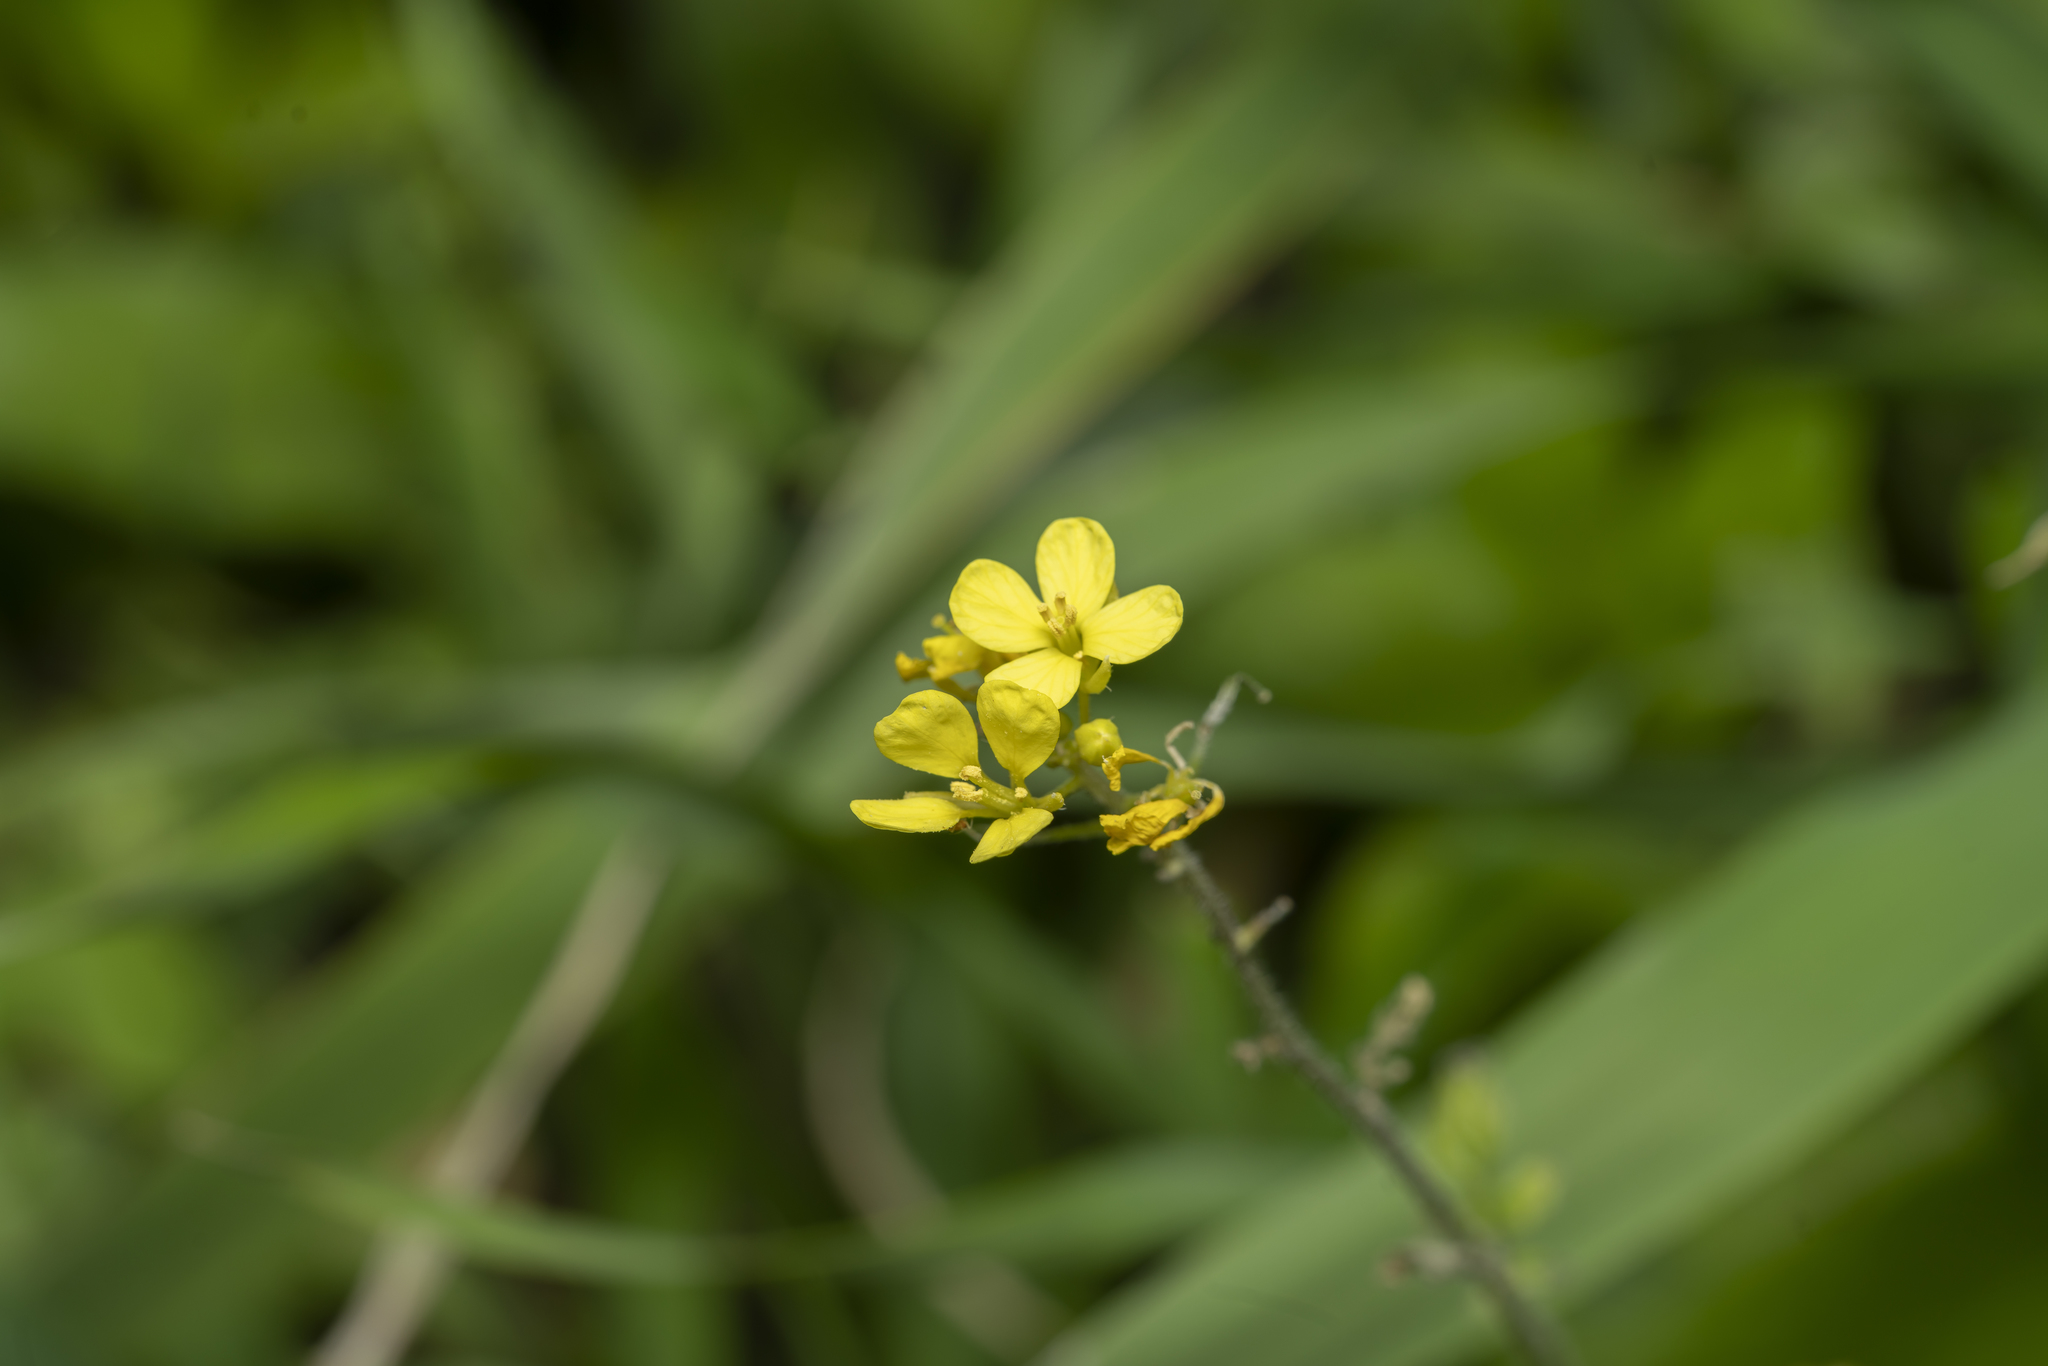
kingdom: Plantae
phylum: Tracheophyta
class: Magnoliopsida
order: Brassicales
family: Brassicaceae
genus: Sinapis
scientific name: Sinapis
